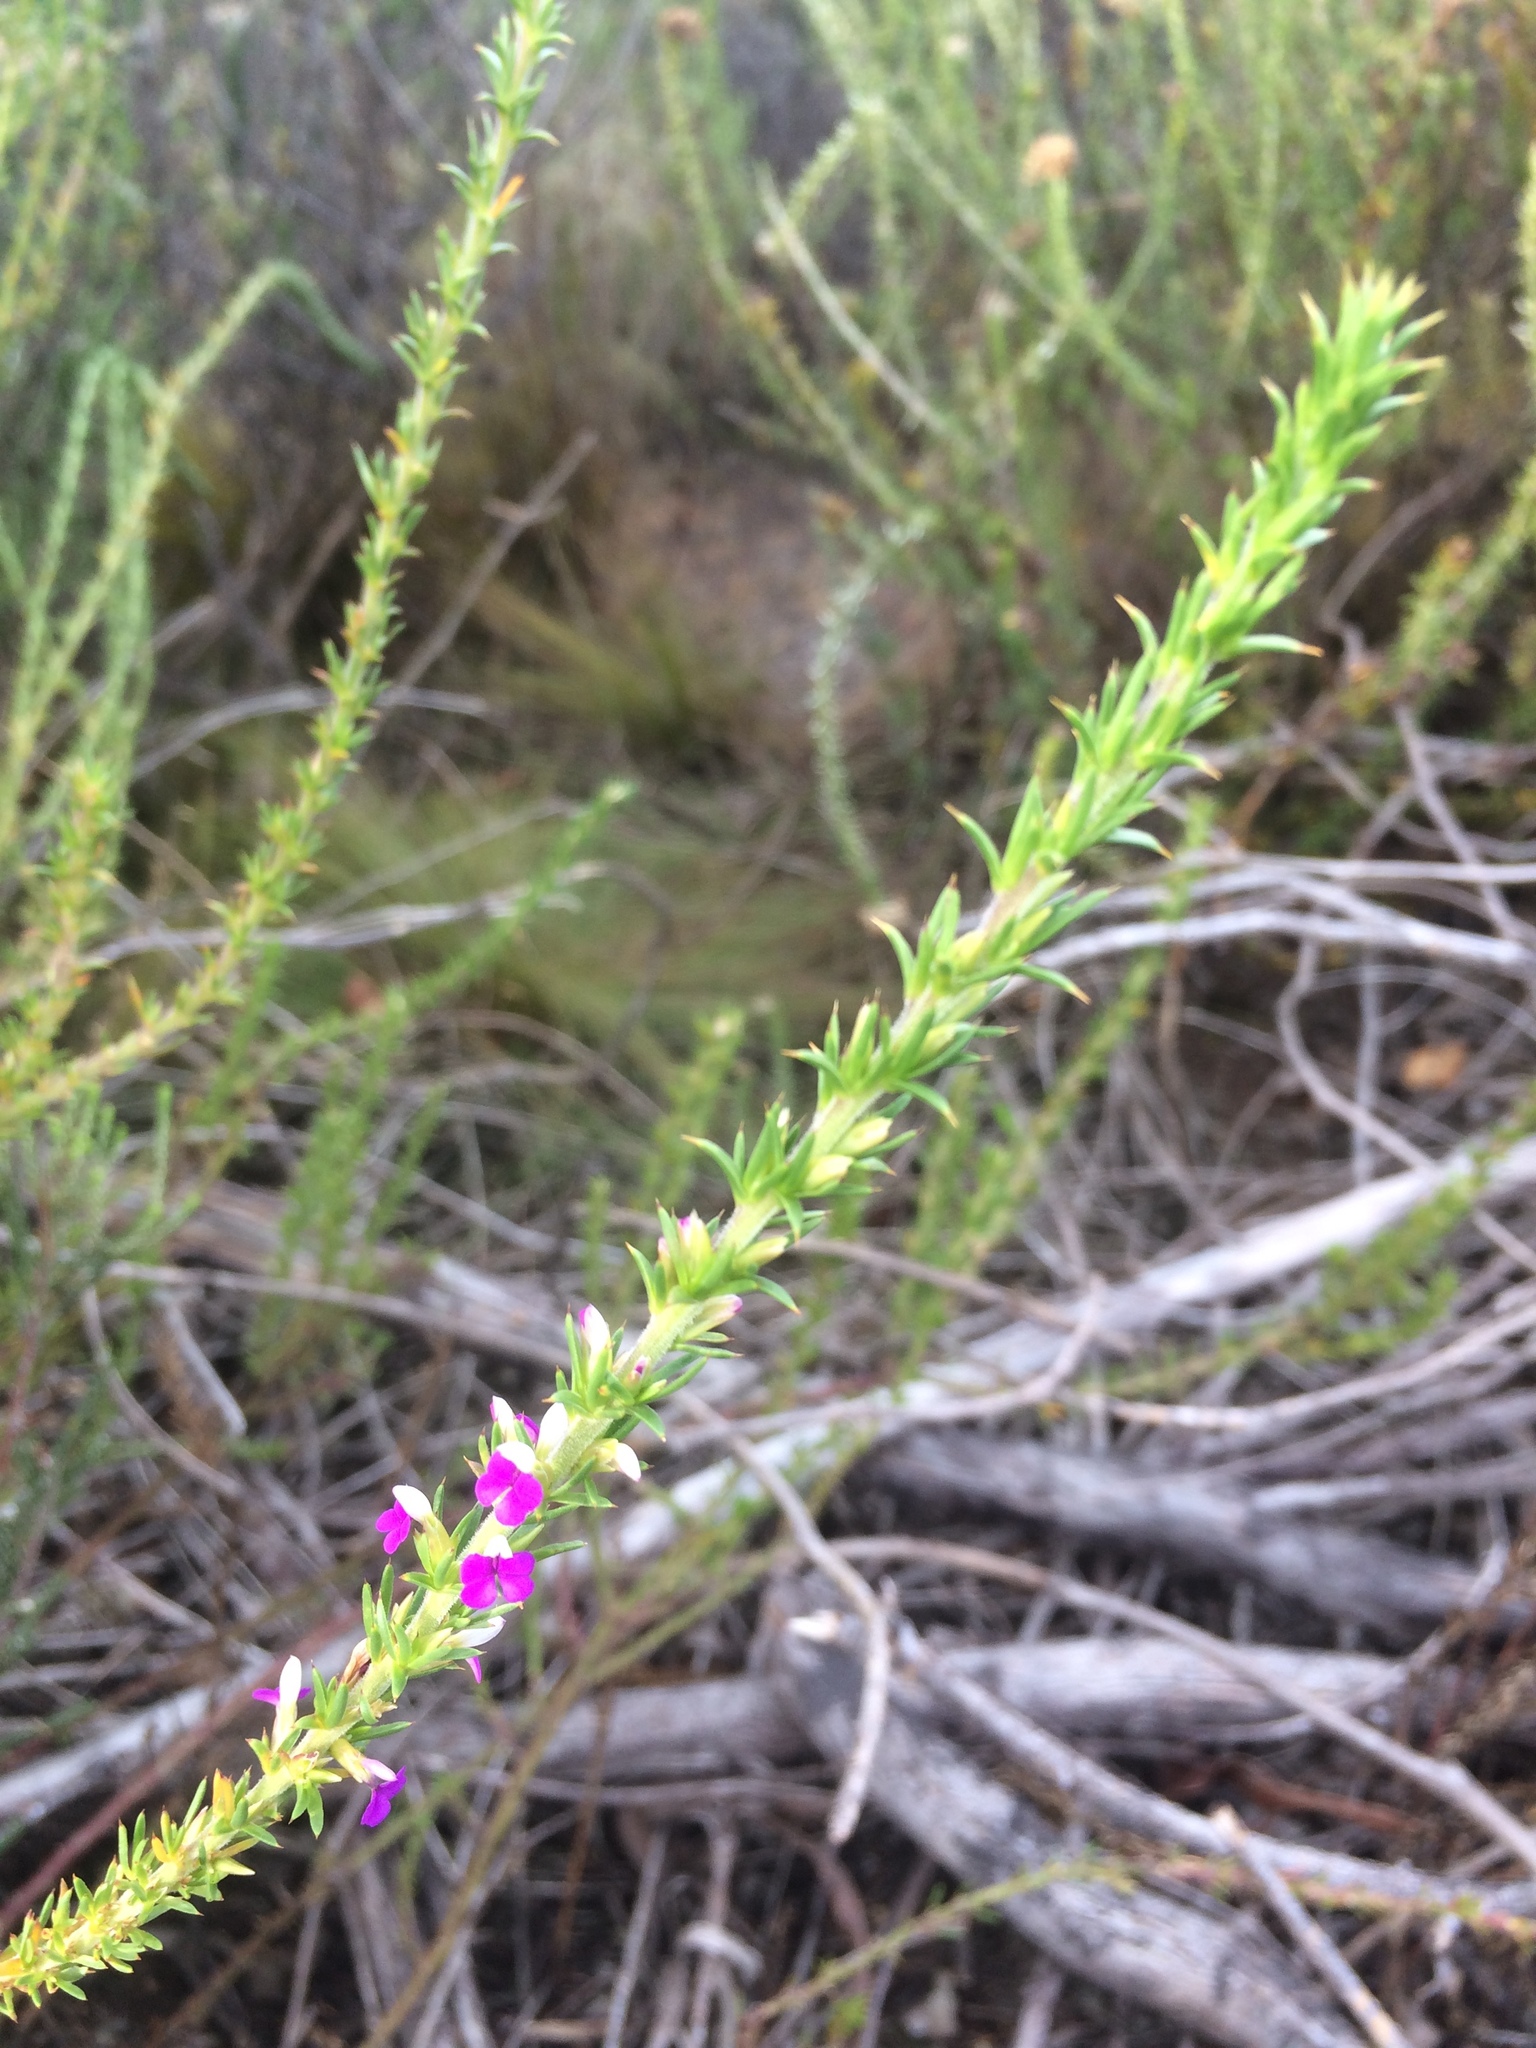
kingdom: Plantae
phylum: Tracheophyta
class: Magnoliopsida
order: Fabales
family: Polygalaceae
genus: Muraltia
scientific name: Muraltia heisteria
